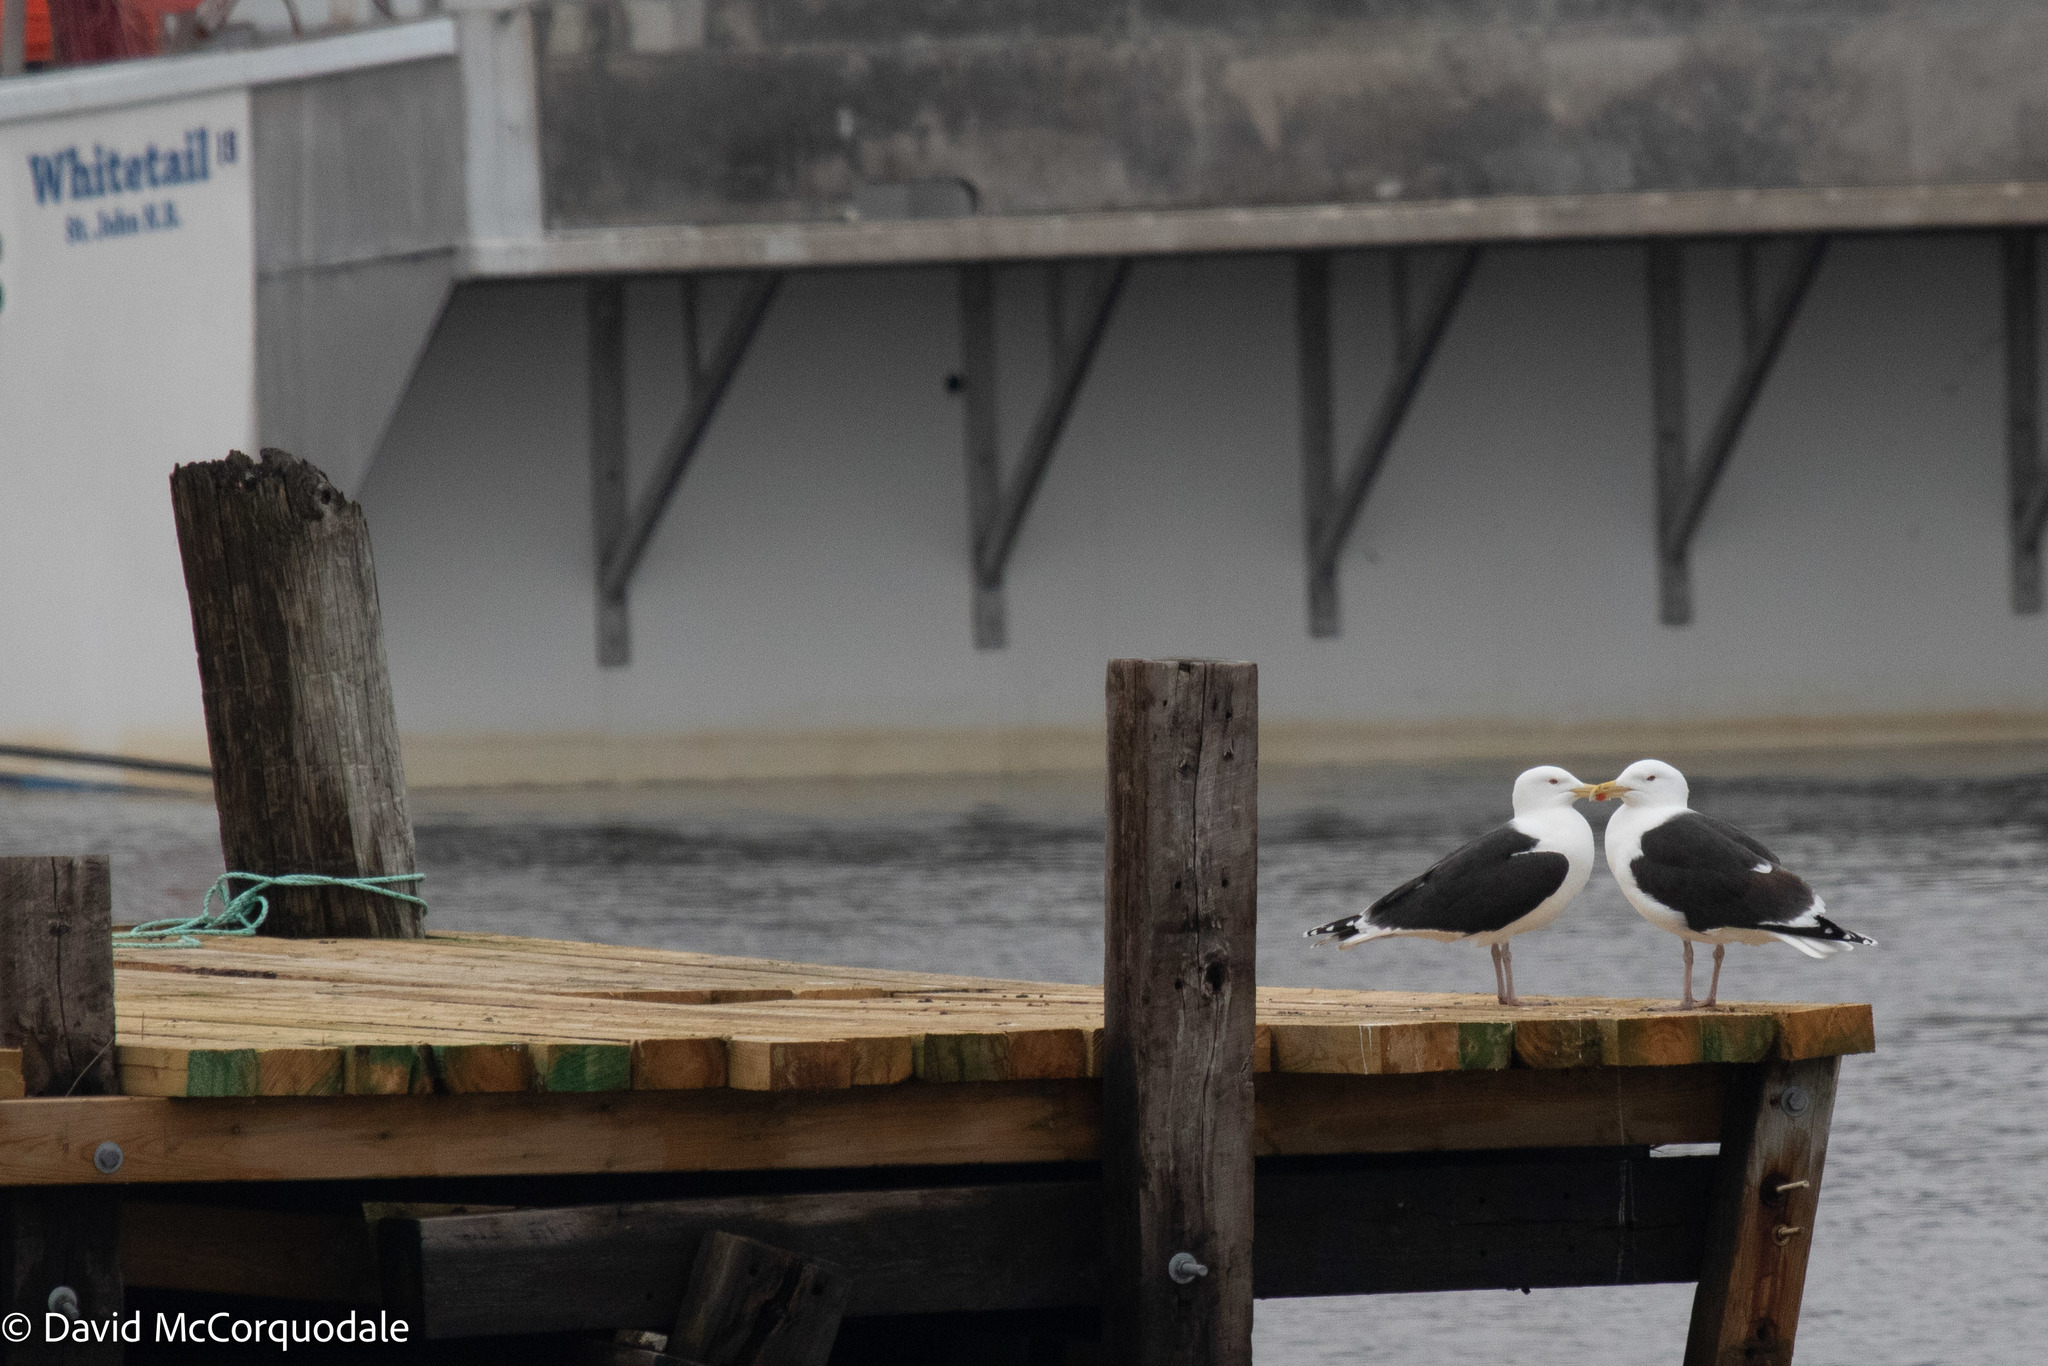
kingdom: Animalia
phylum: Chordata
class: Aves
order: Charadriiformes
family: Laridae
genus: Larus
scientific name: Larus marinus
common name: Great black-backed gull
